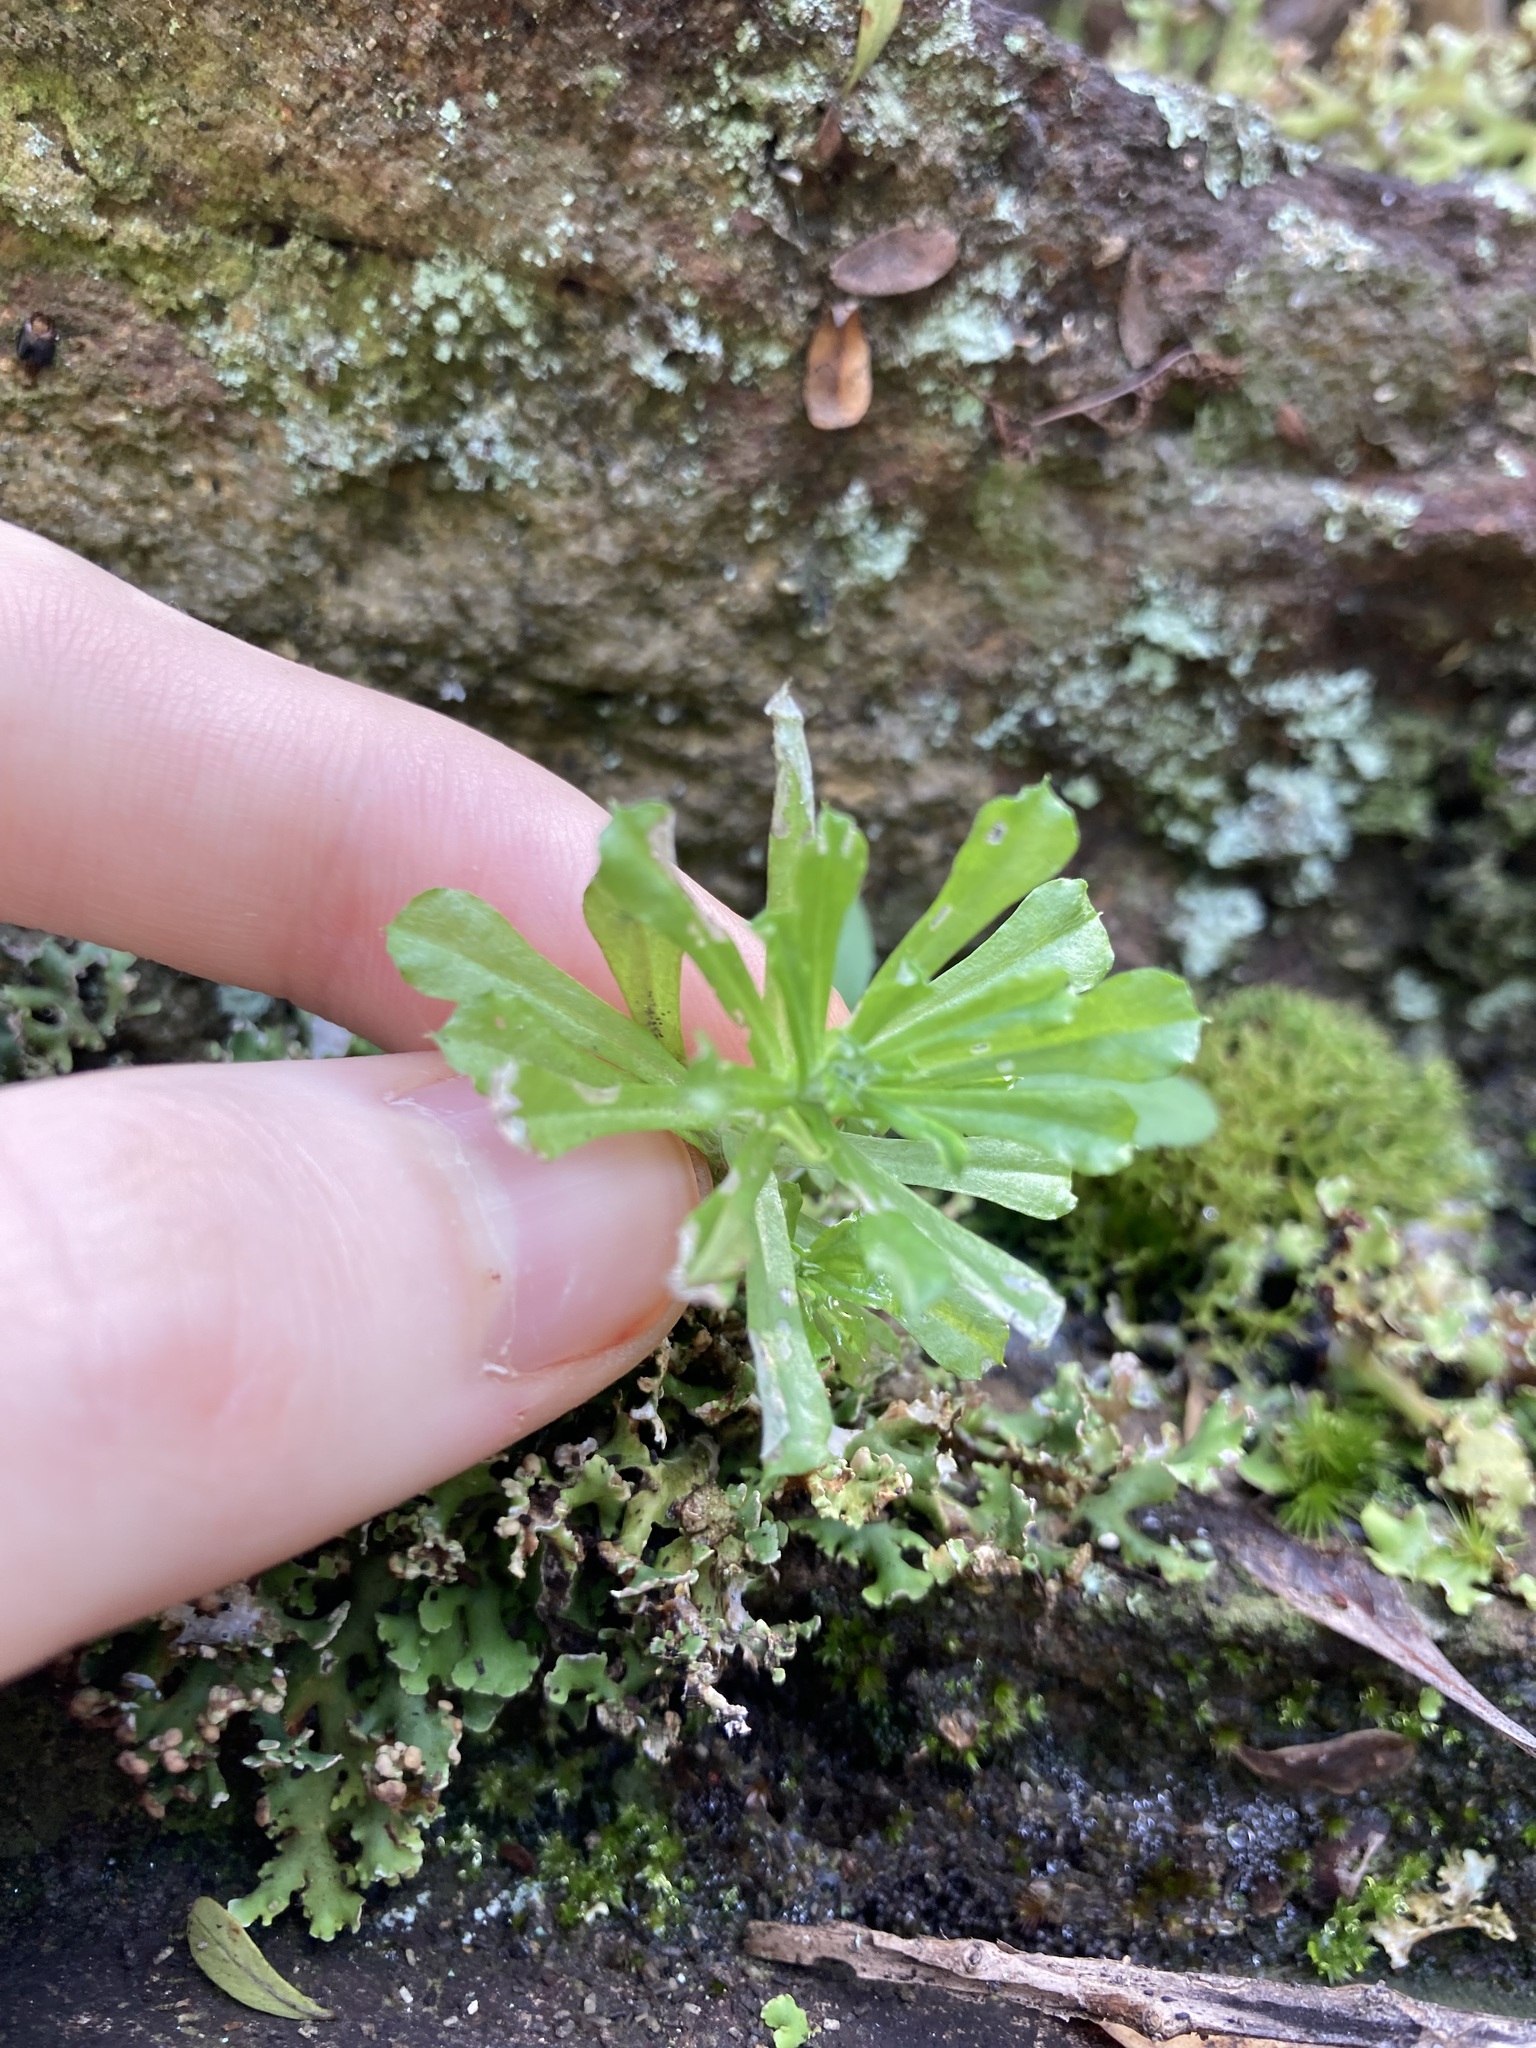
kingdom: Plantae
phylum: Tracheophyta
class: Magnoliopsida
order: Asterales
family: Asteraceae
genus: Facelis
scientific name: Facelis retusa
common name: Annual trampweed
